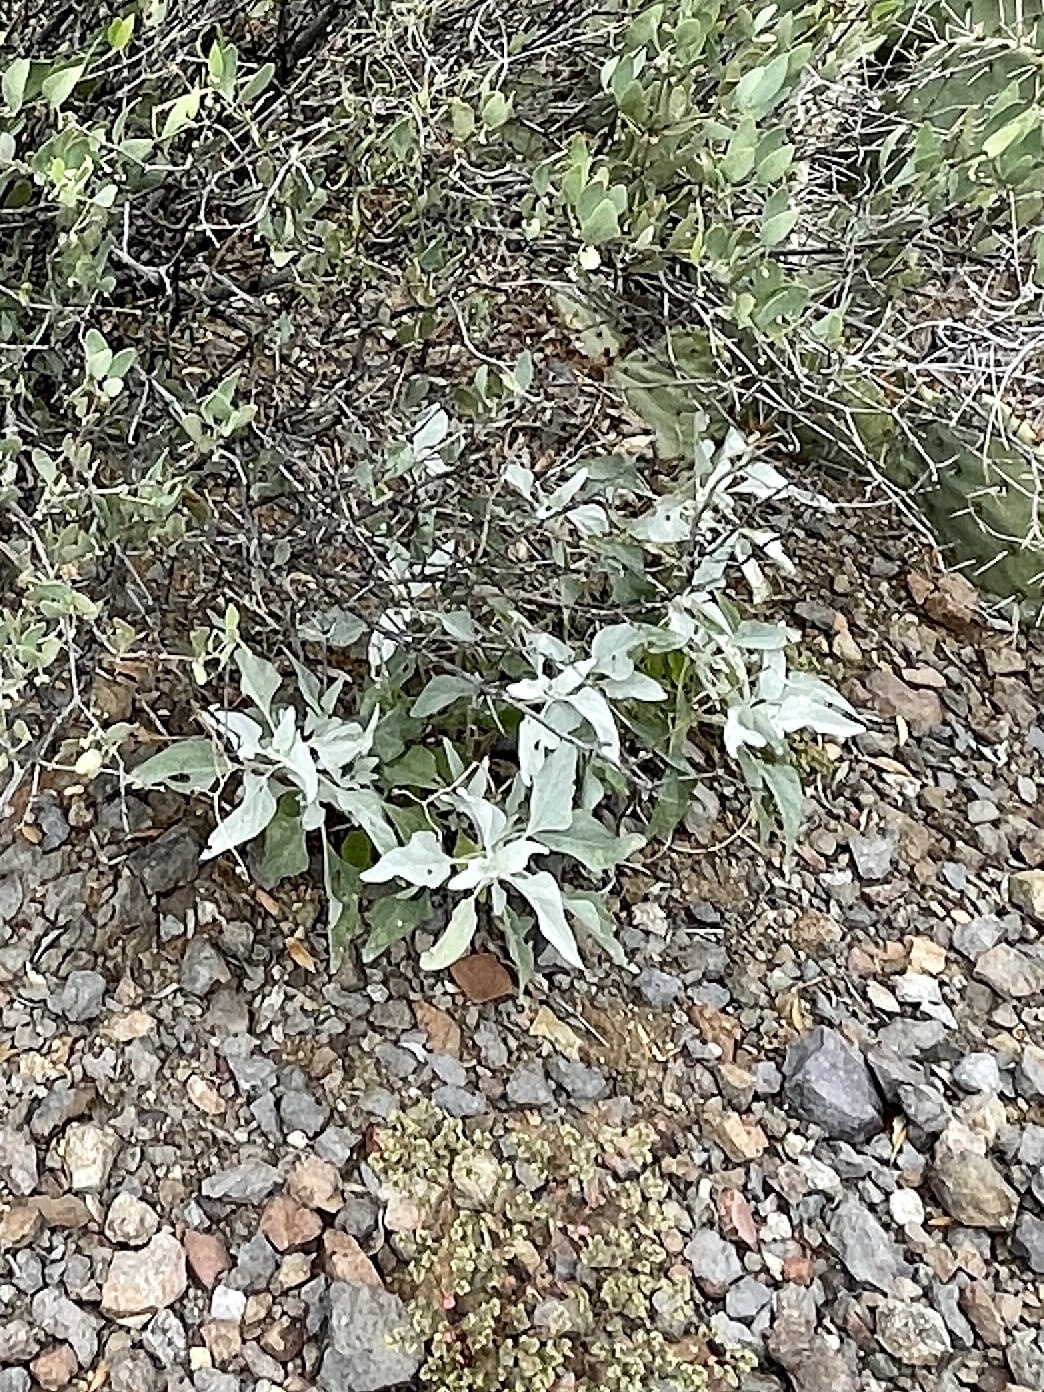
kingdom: Plantae
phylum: Tracheophyta
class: Magnoliopsida
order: Asterales
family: Asteraceae
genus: Encelia
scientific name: Encelia farinosa
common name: Brittlebush
